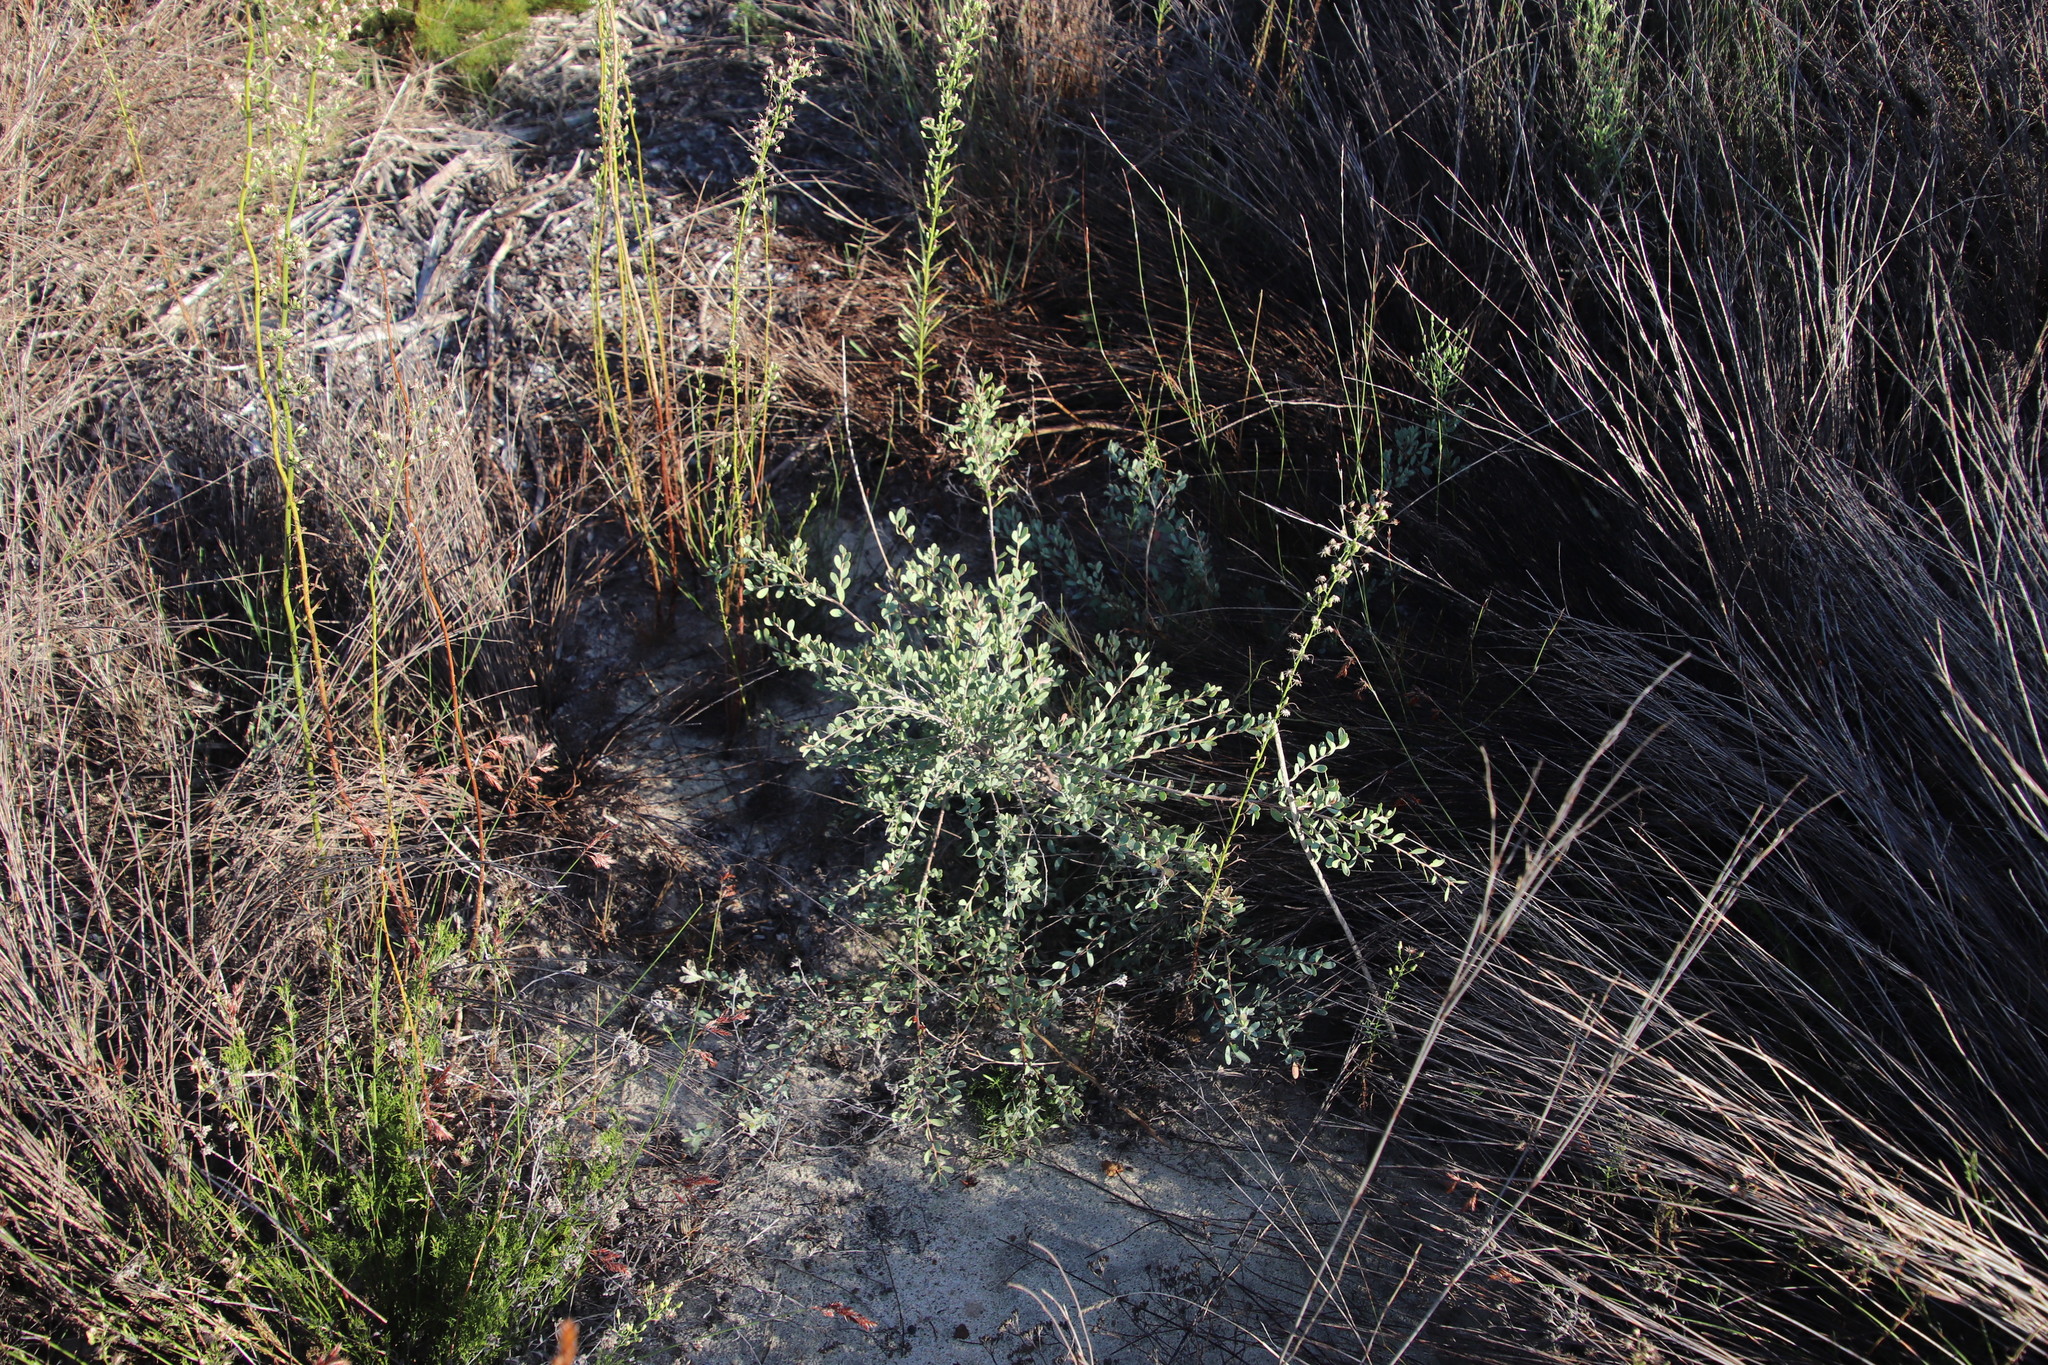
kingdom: Plantae
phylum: Tracheophyta
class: Magnoliopsida
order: Myrtales
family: Myrtaceae
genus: Leptospermum
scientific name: Leptospermum laevigatum
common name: Australian teatree
